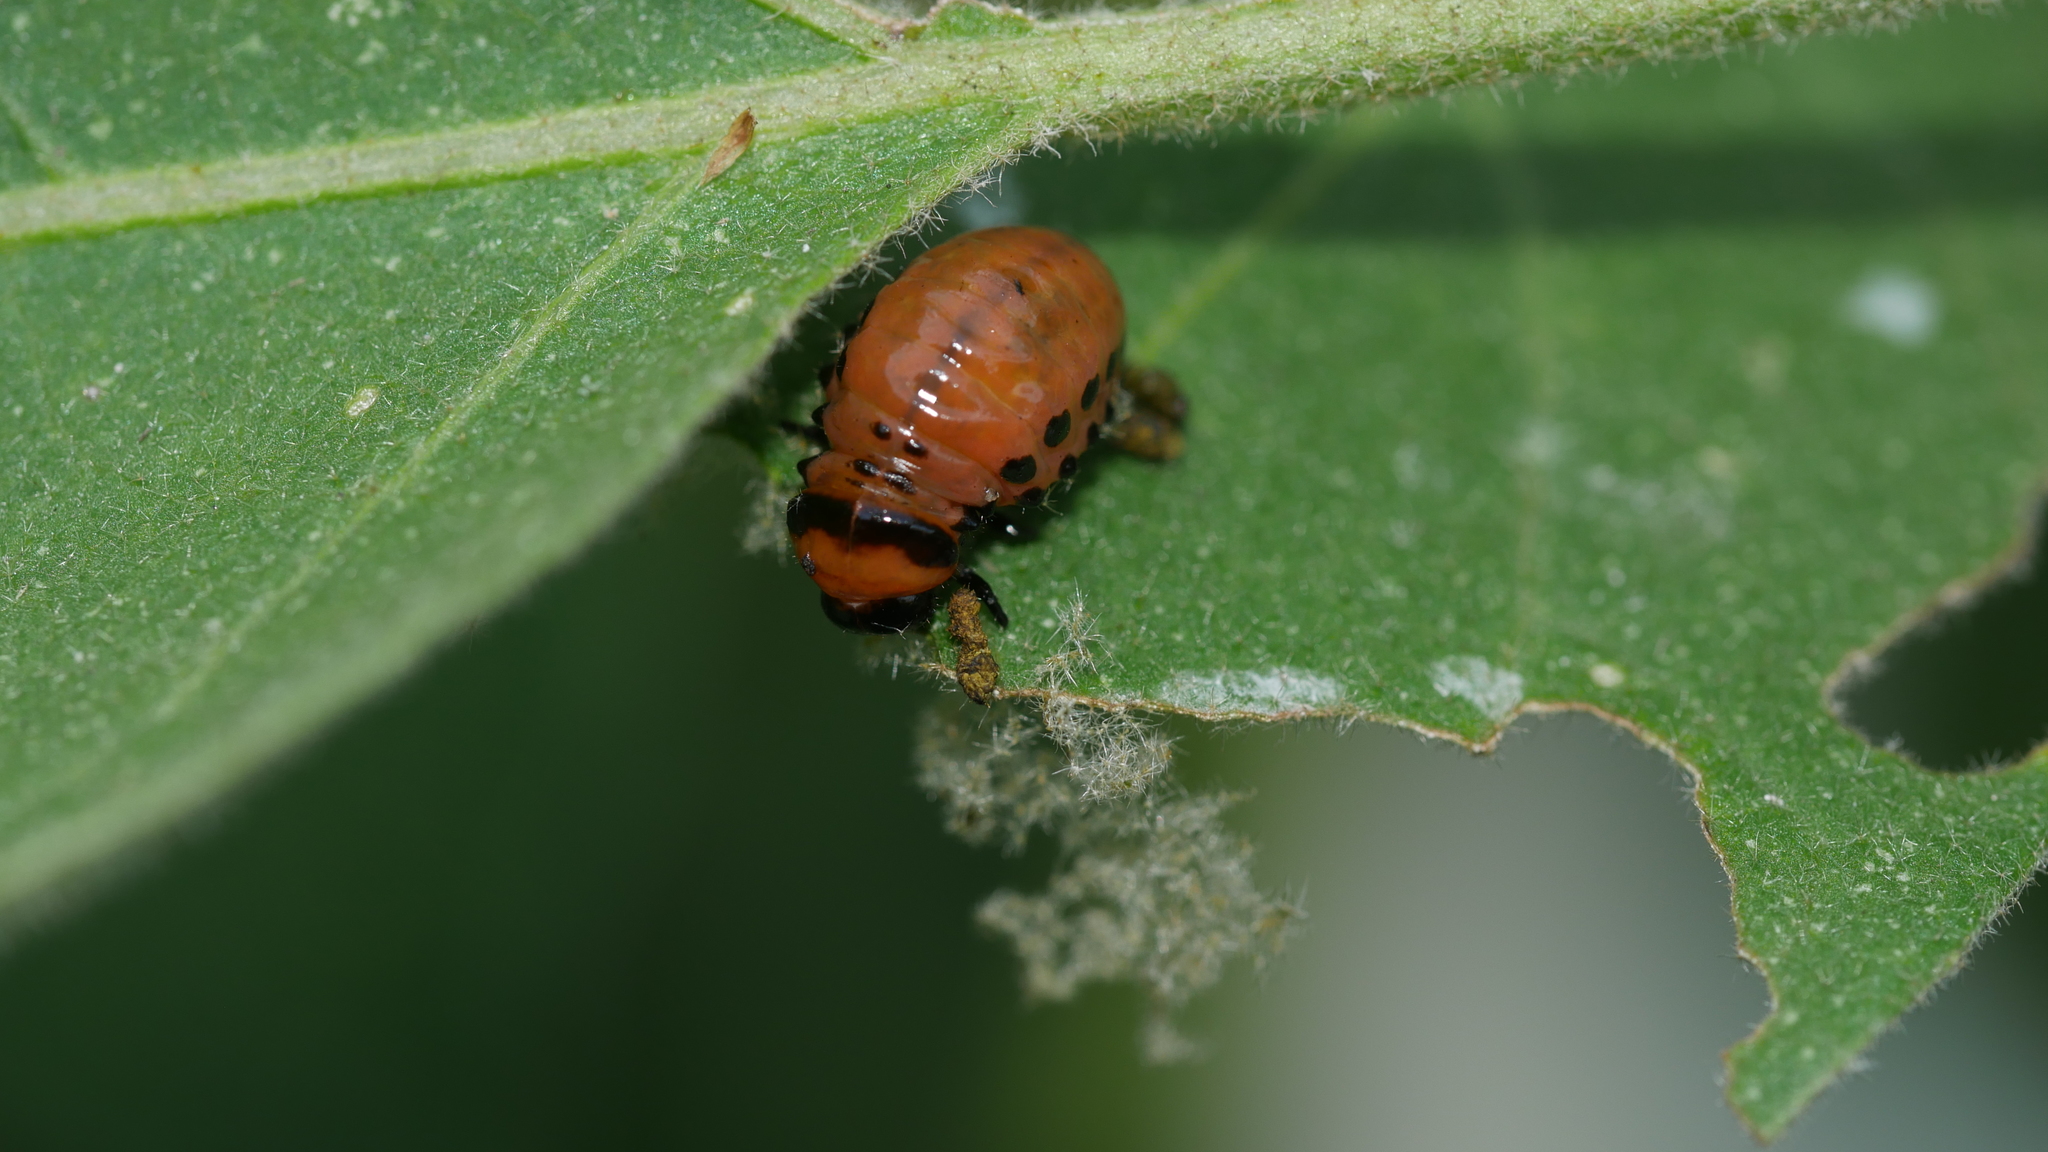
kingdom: Animalia
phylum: Arthropoda
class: Insecta
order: Coleoptera
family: Chrysomelidae
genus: Leptinotarsa
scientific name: Leptinotarsa decemlineata
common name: Colorado potato beetle
